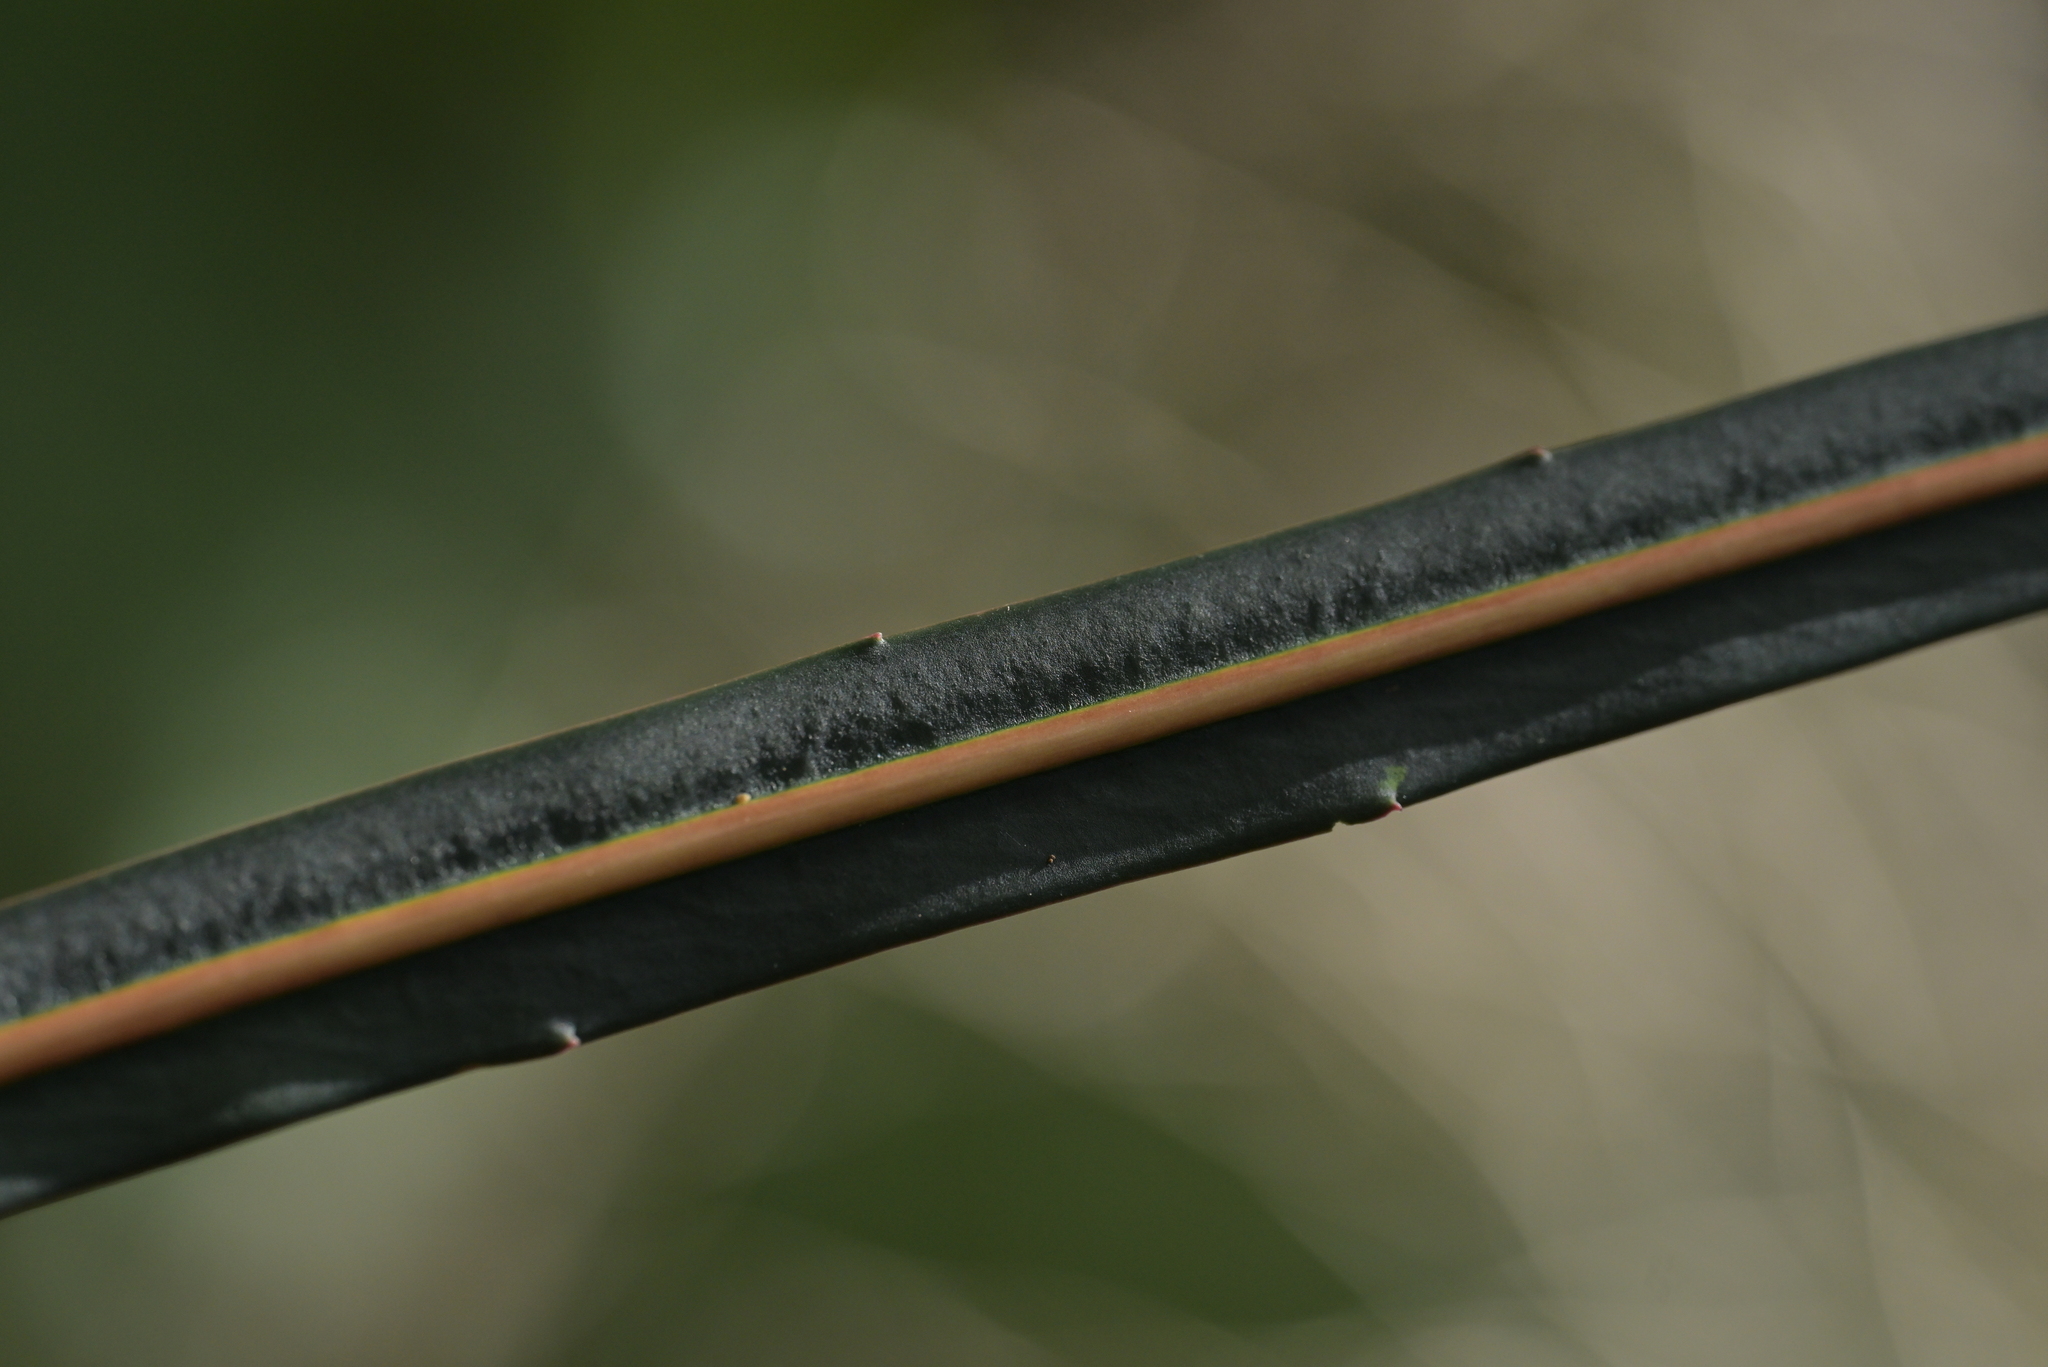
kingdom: Plantae
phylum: Tracheophyta
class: Magnoliopsida
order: Apiales
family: Araliaceae
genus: Pseudopanax
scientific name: Pseudopanax crassifolius
